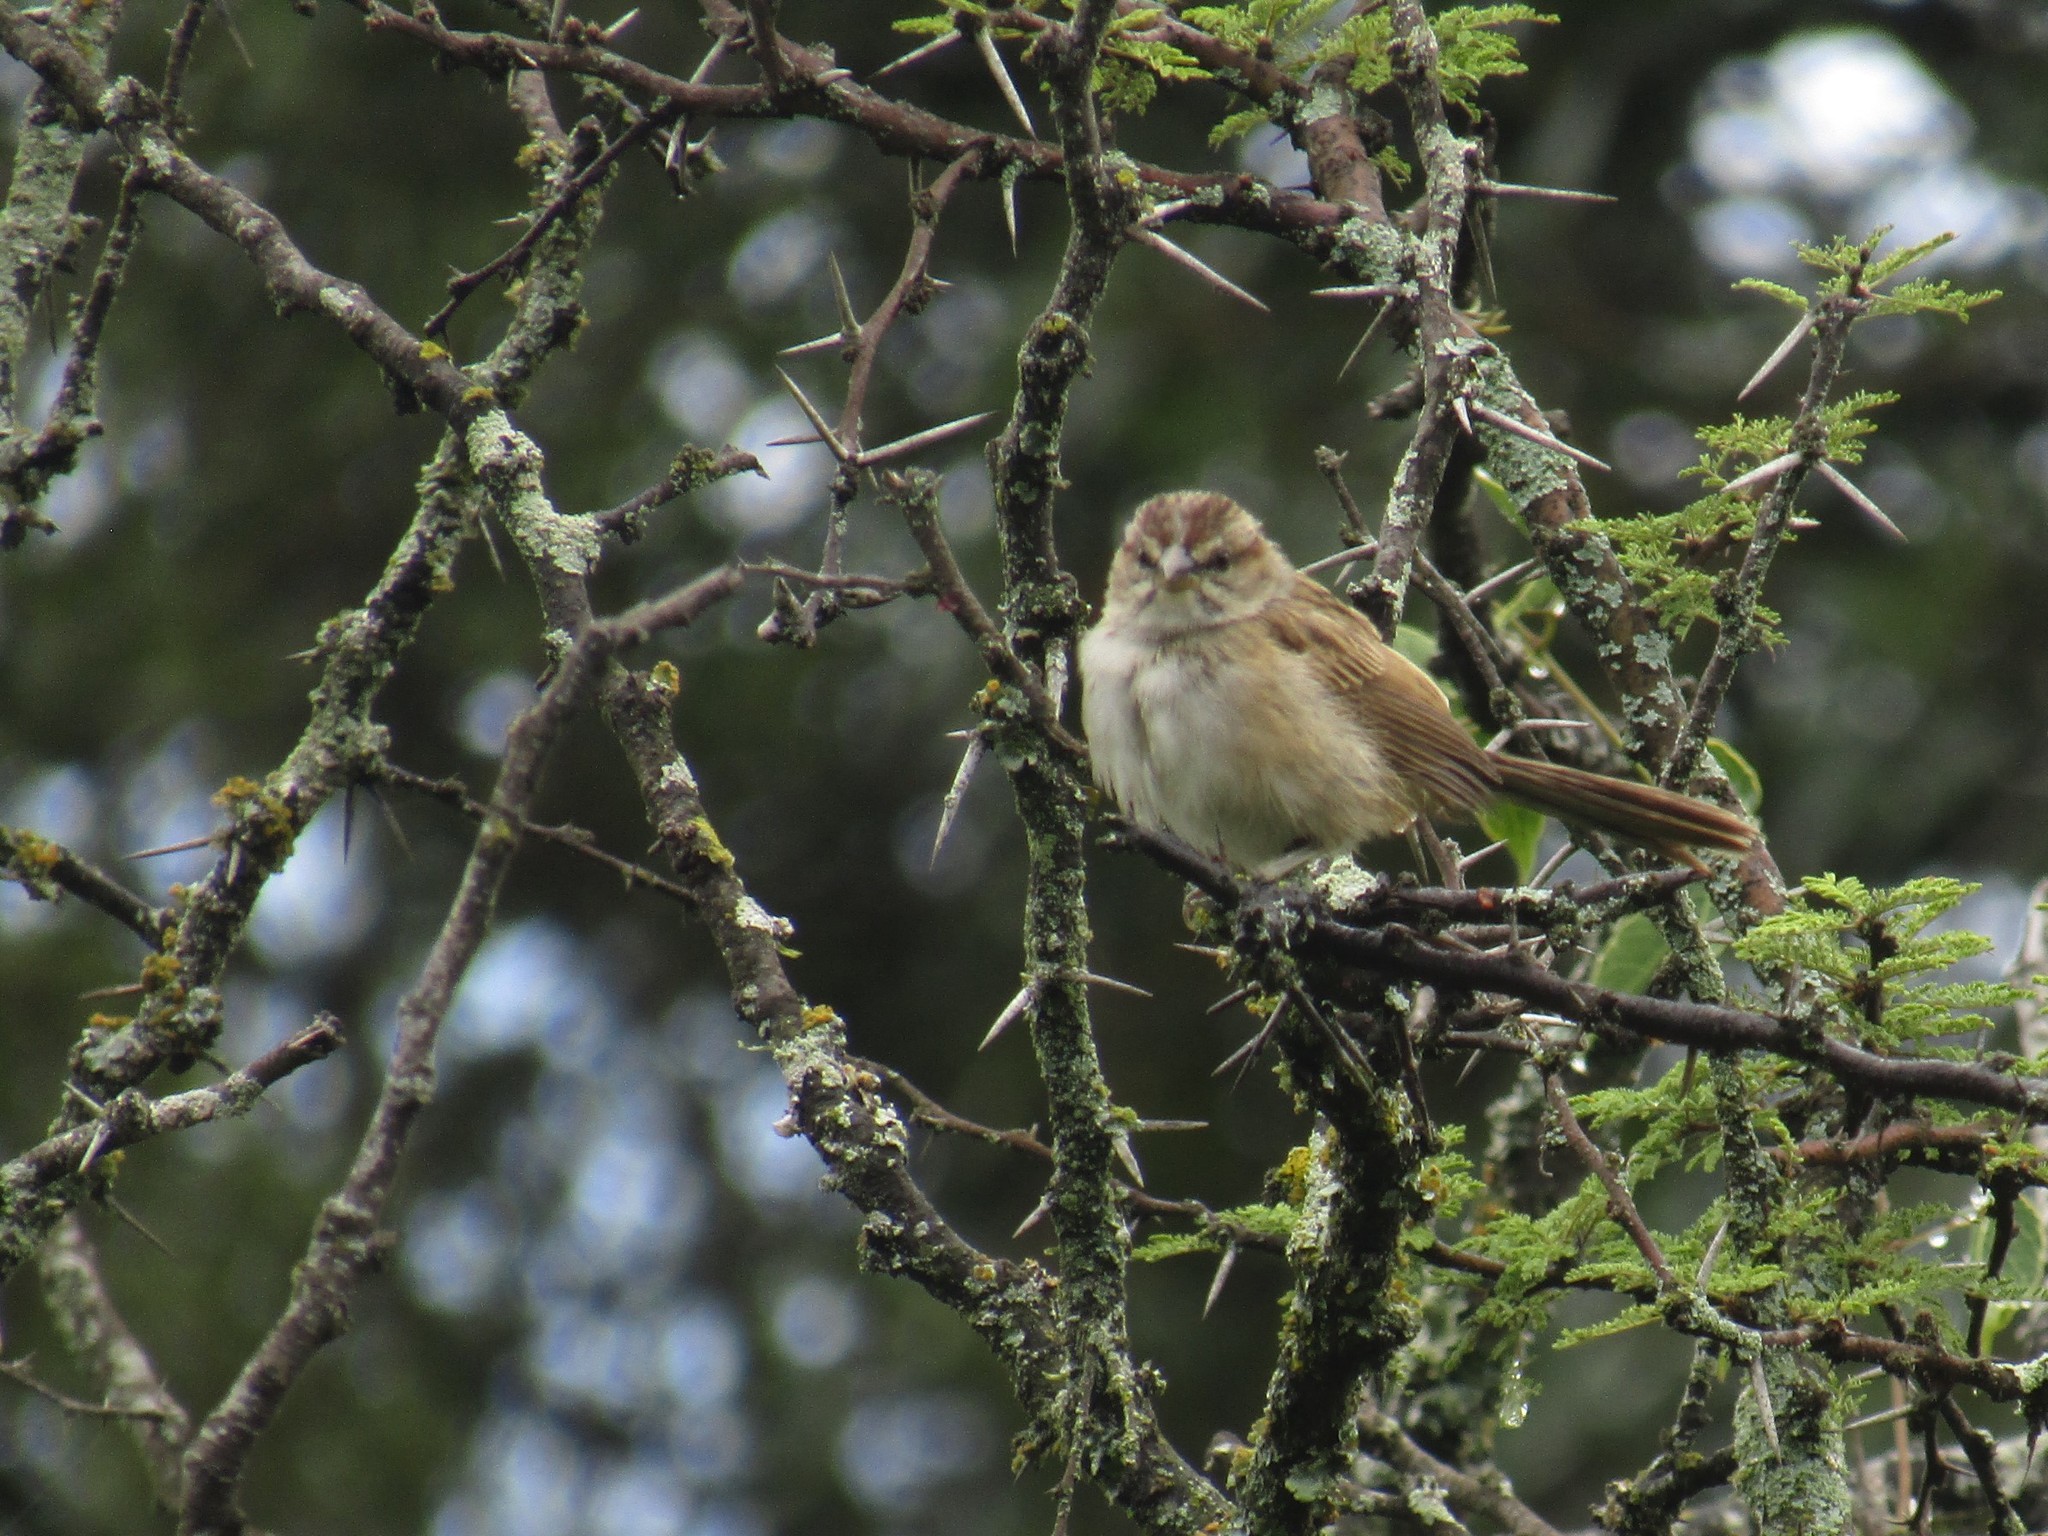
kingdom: Animalia
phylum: Chordata
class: Aves
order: Passeriformes
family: Passerellidae
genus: Rhynchospiza
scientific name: Rhynchospiza strigiceps
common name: Stripe-capped sparrow
